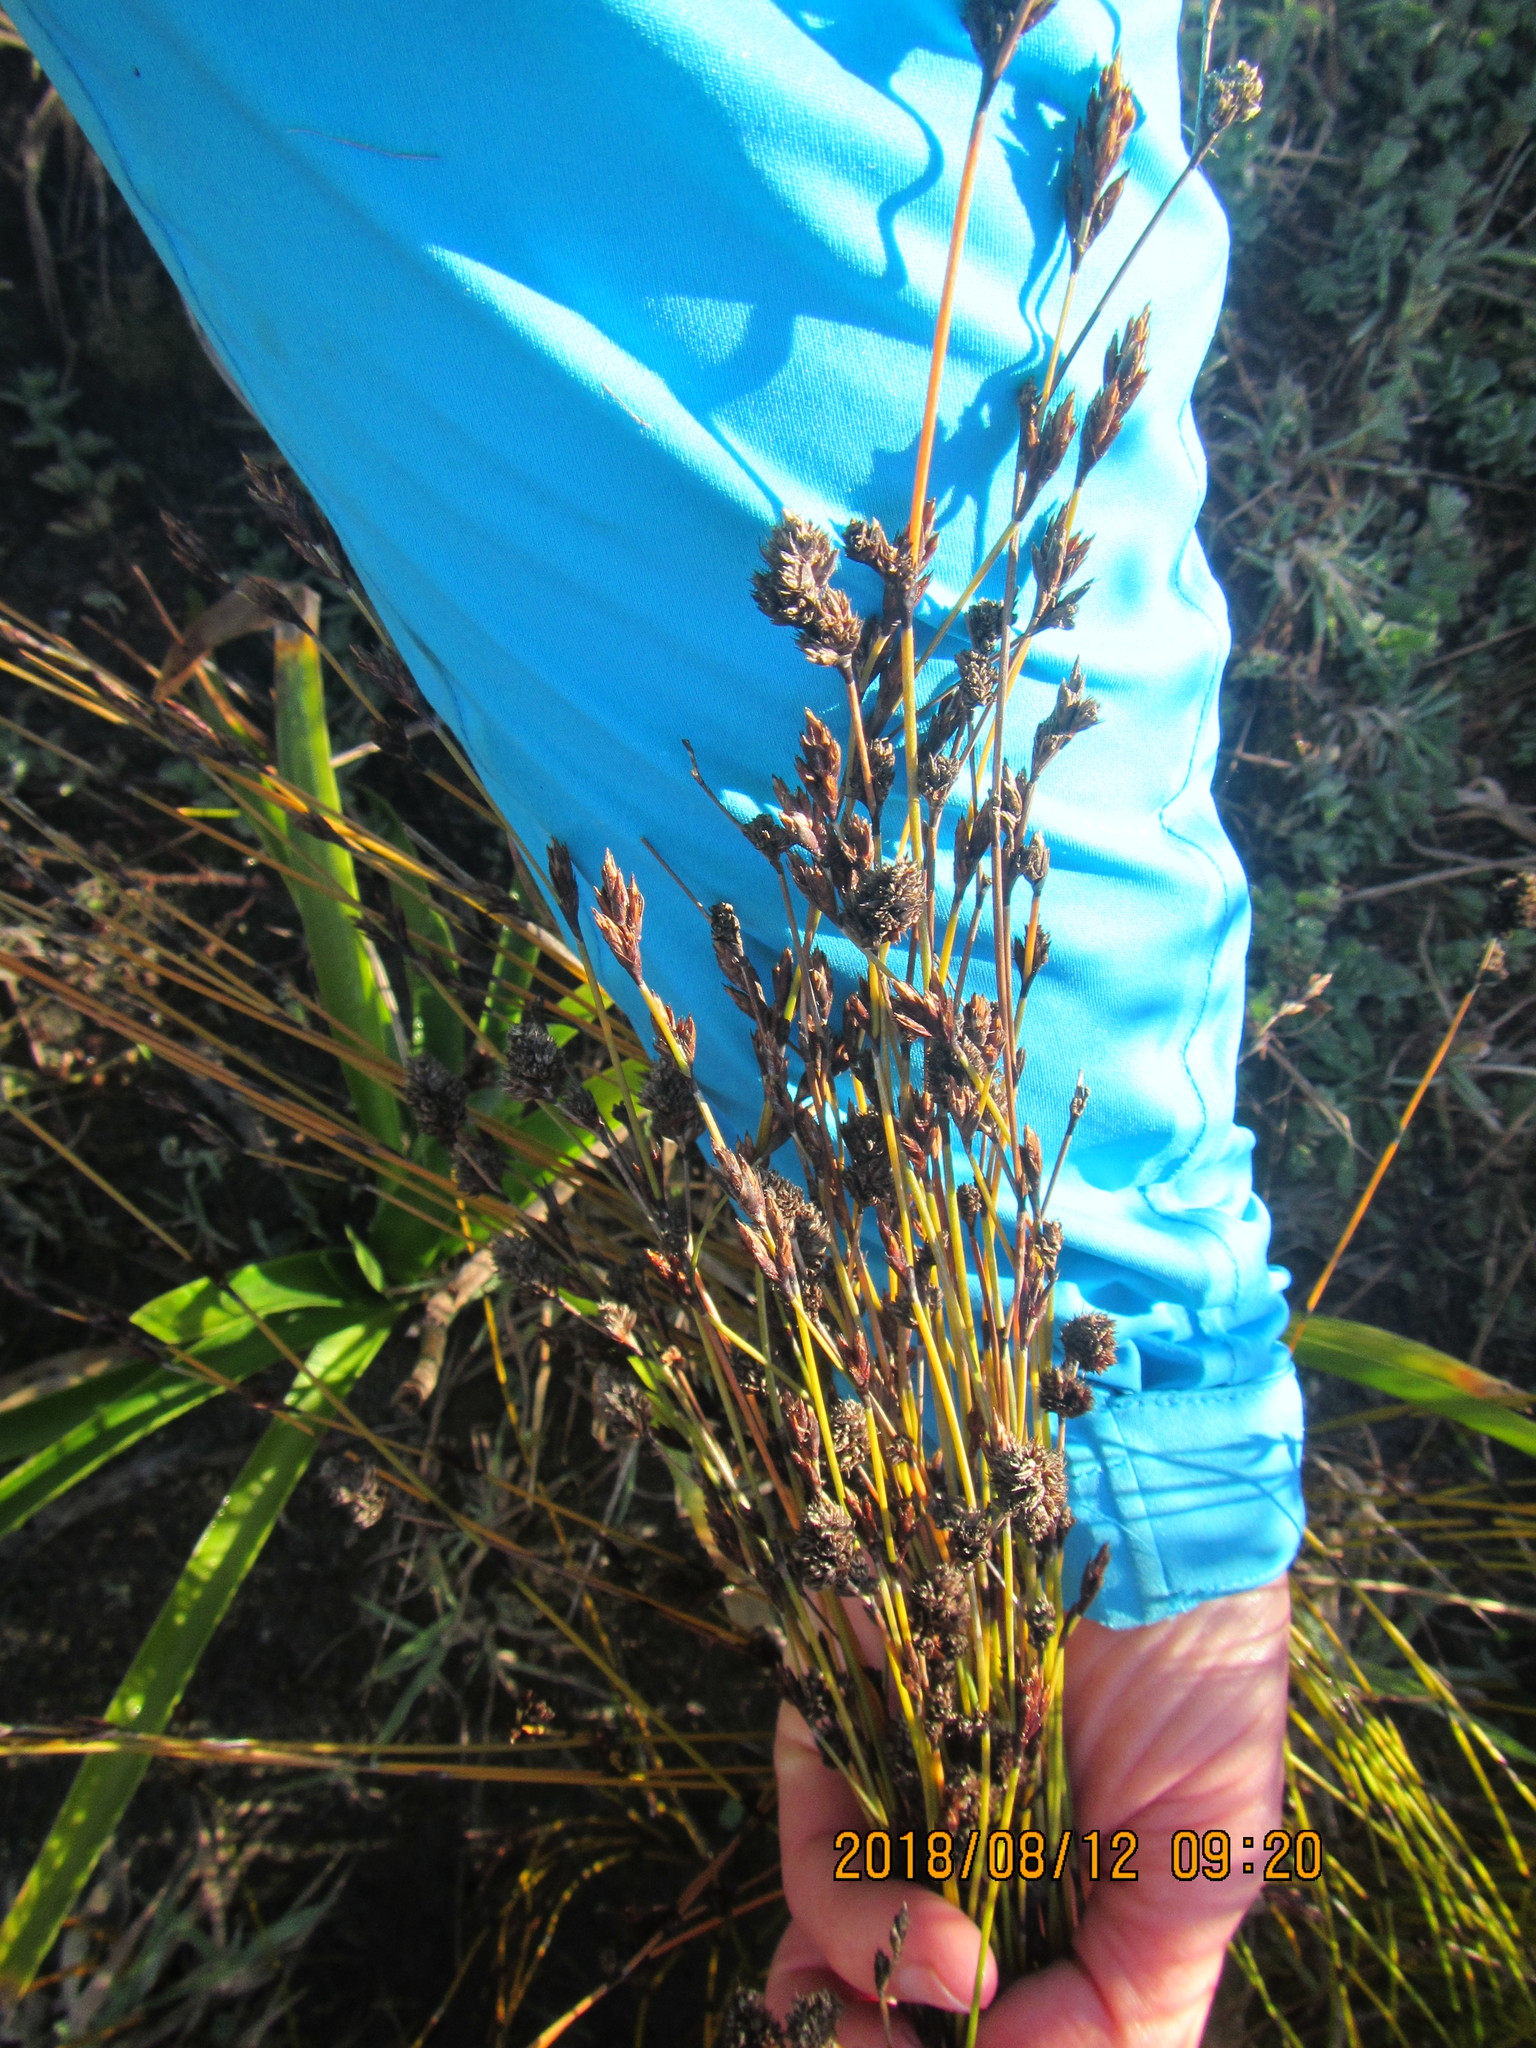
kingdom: Plantae
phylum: Tracheophyta
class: Liliopsida
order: Poales
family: Restionaceae
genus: Apodasmia
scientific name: Apodasmia similis
